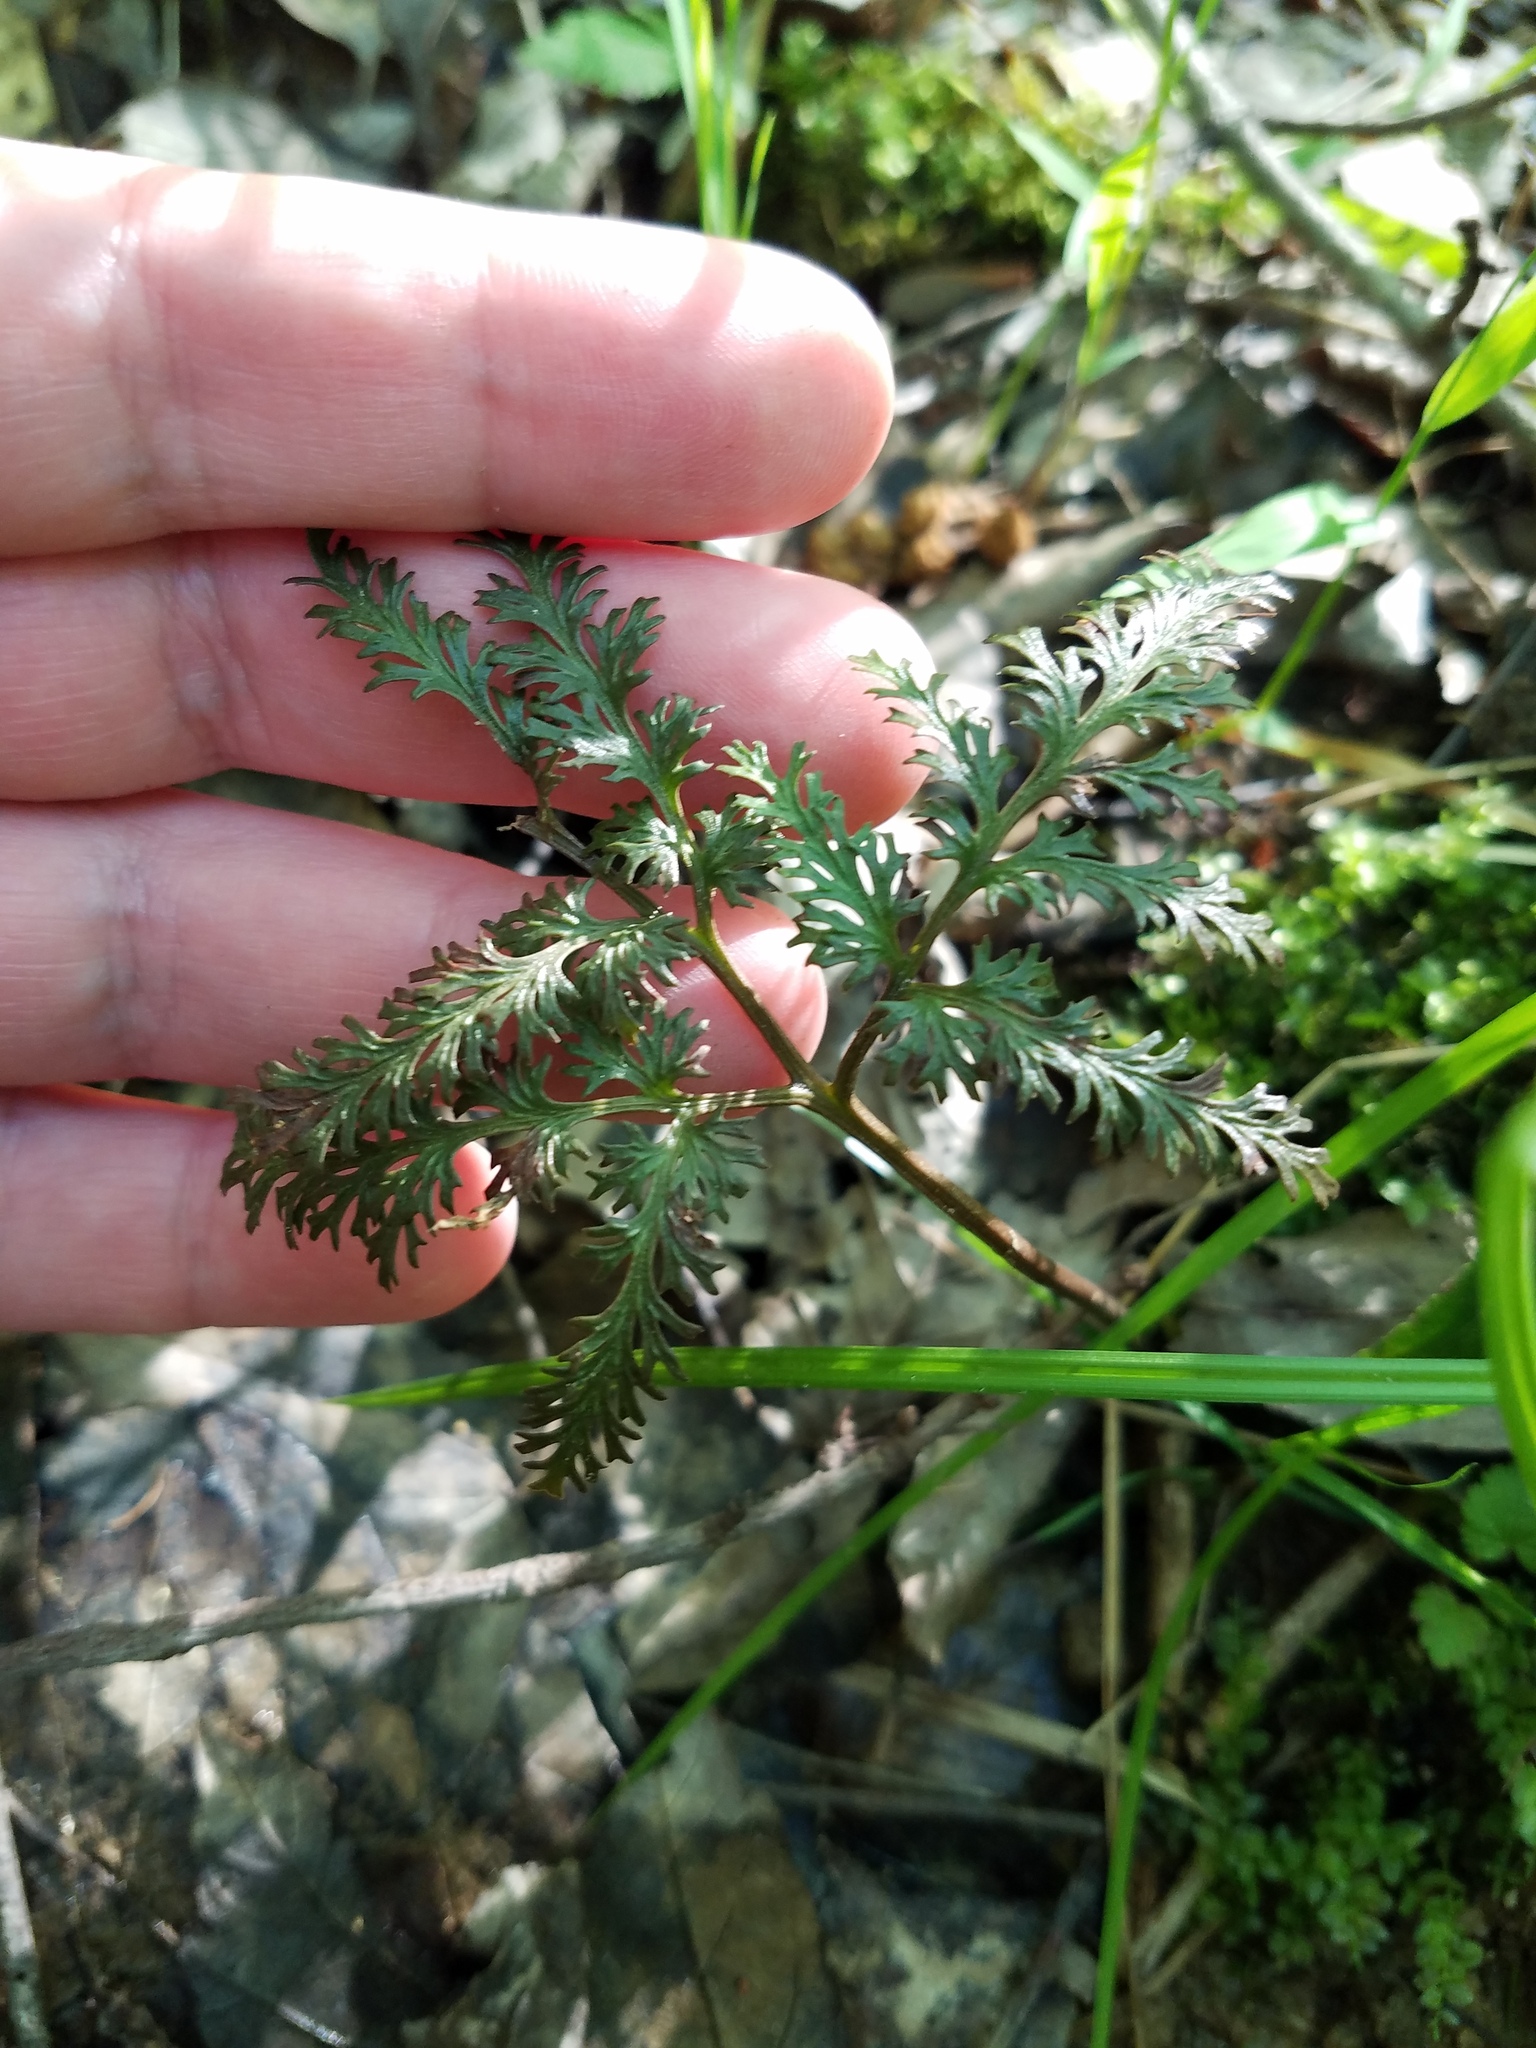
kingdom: Plantae
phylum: Tracheophyta
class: Polypodiopsida
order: Ophioglossales
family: Ophioglossaceae
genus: Sceptridium
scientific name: Sceptridium dissectum
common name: Cut-leaved grapefern
